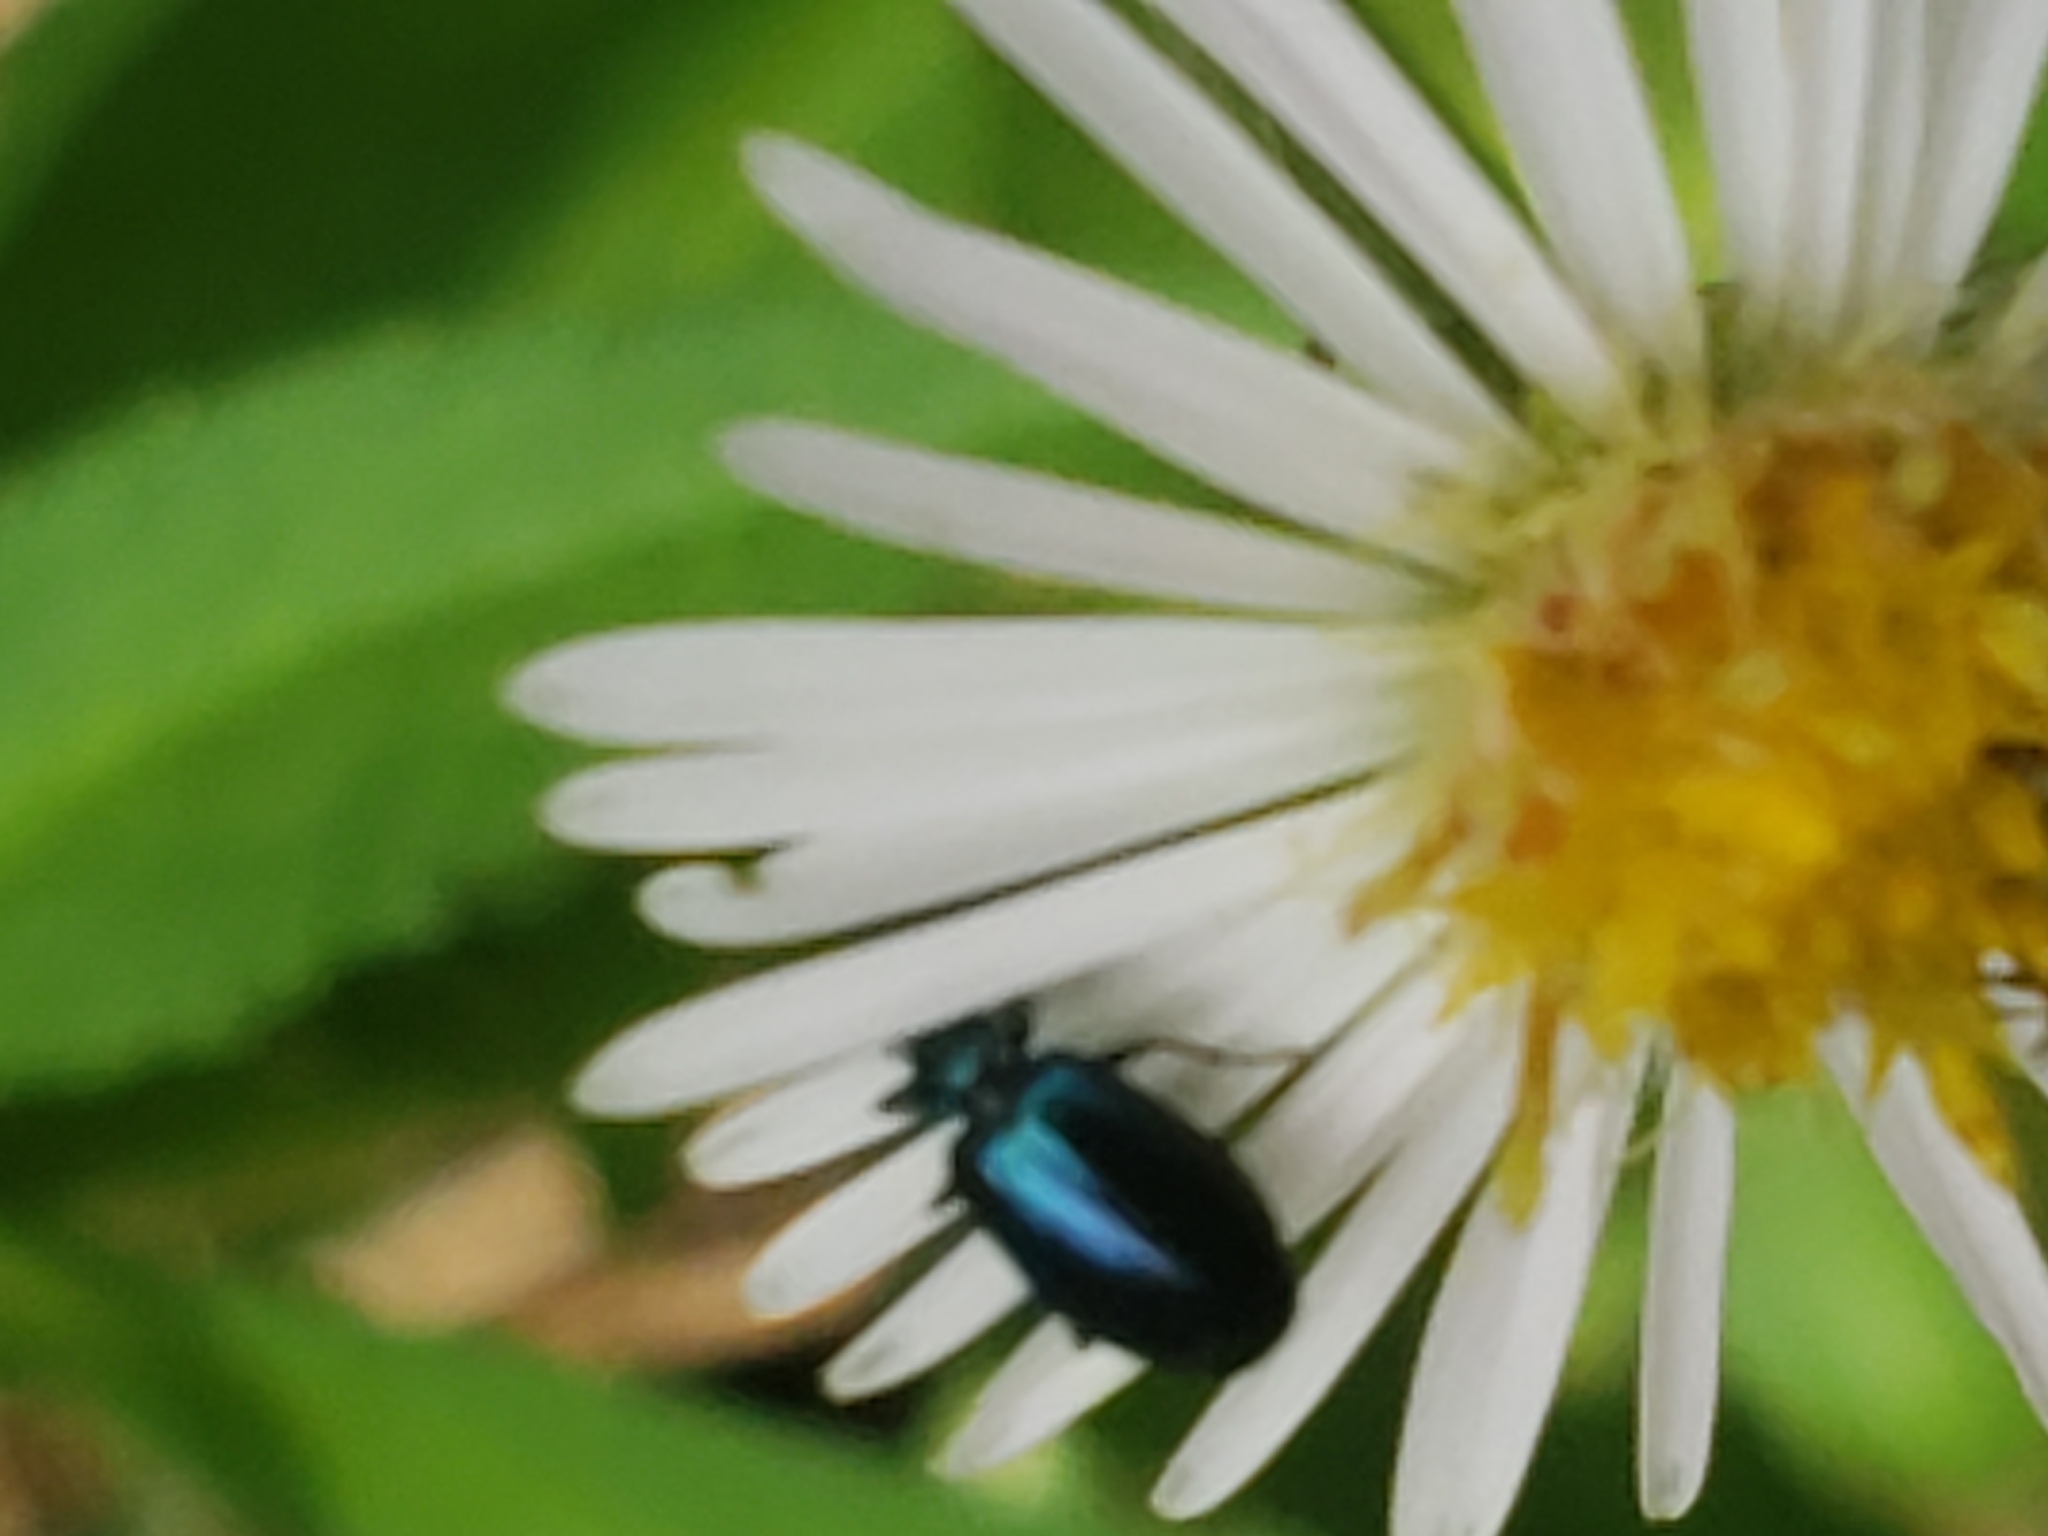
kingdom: Animalia
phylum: Arthropoda
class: Insecta
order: Coleoptera
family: Carabidae
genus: Lebia
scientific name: Lebia viridis
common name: Flower lebia beetle
